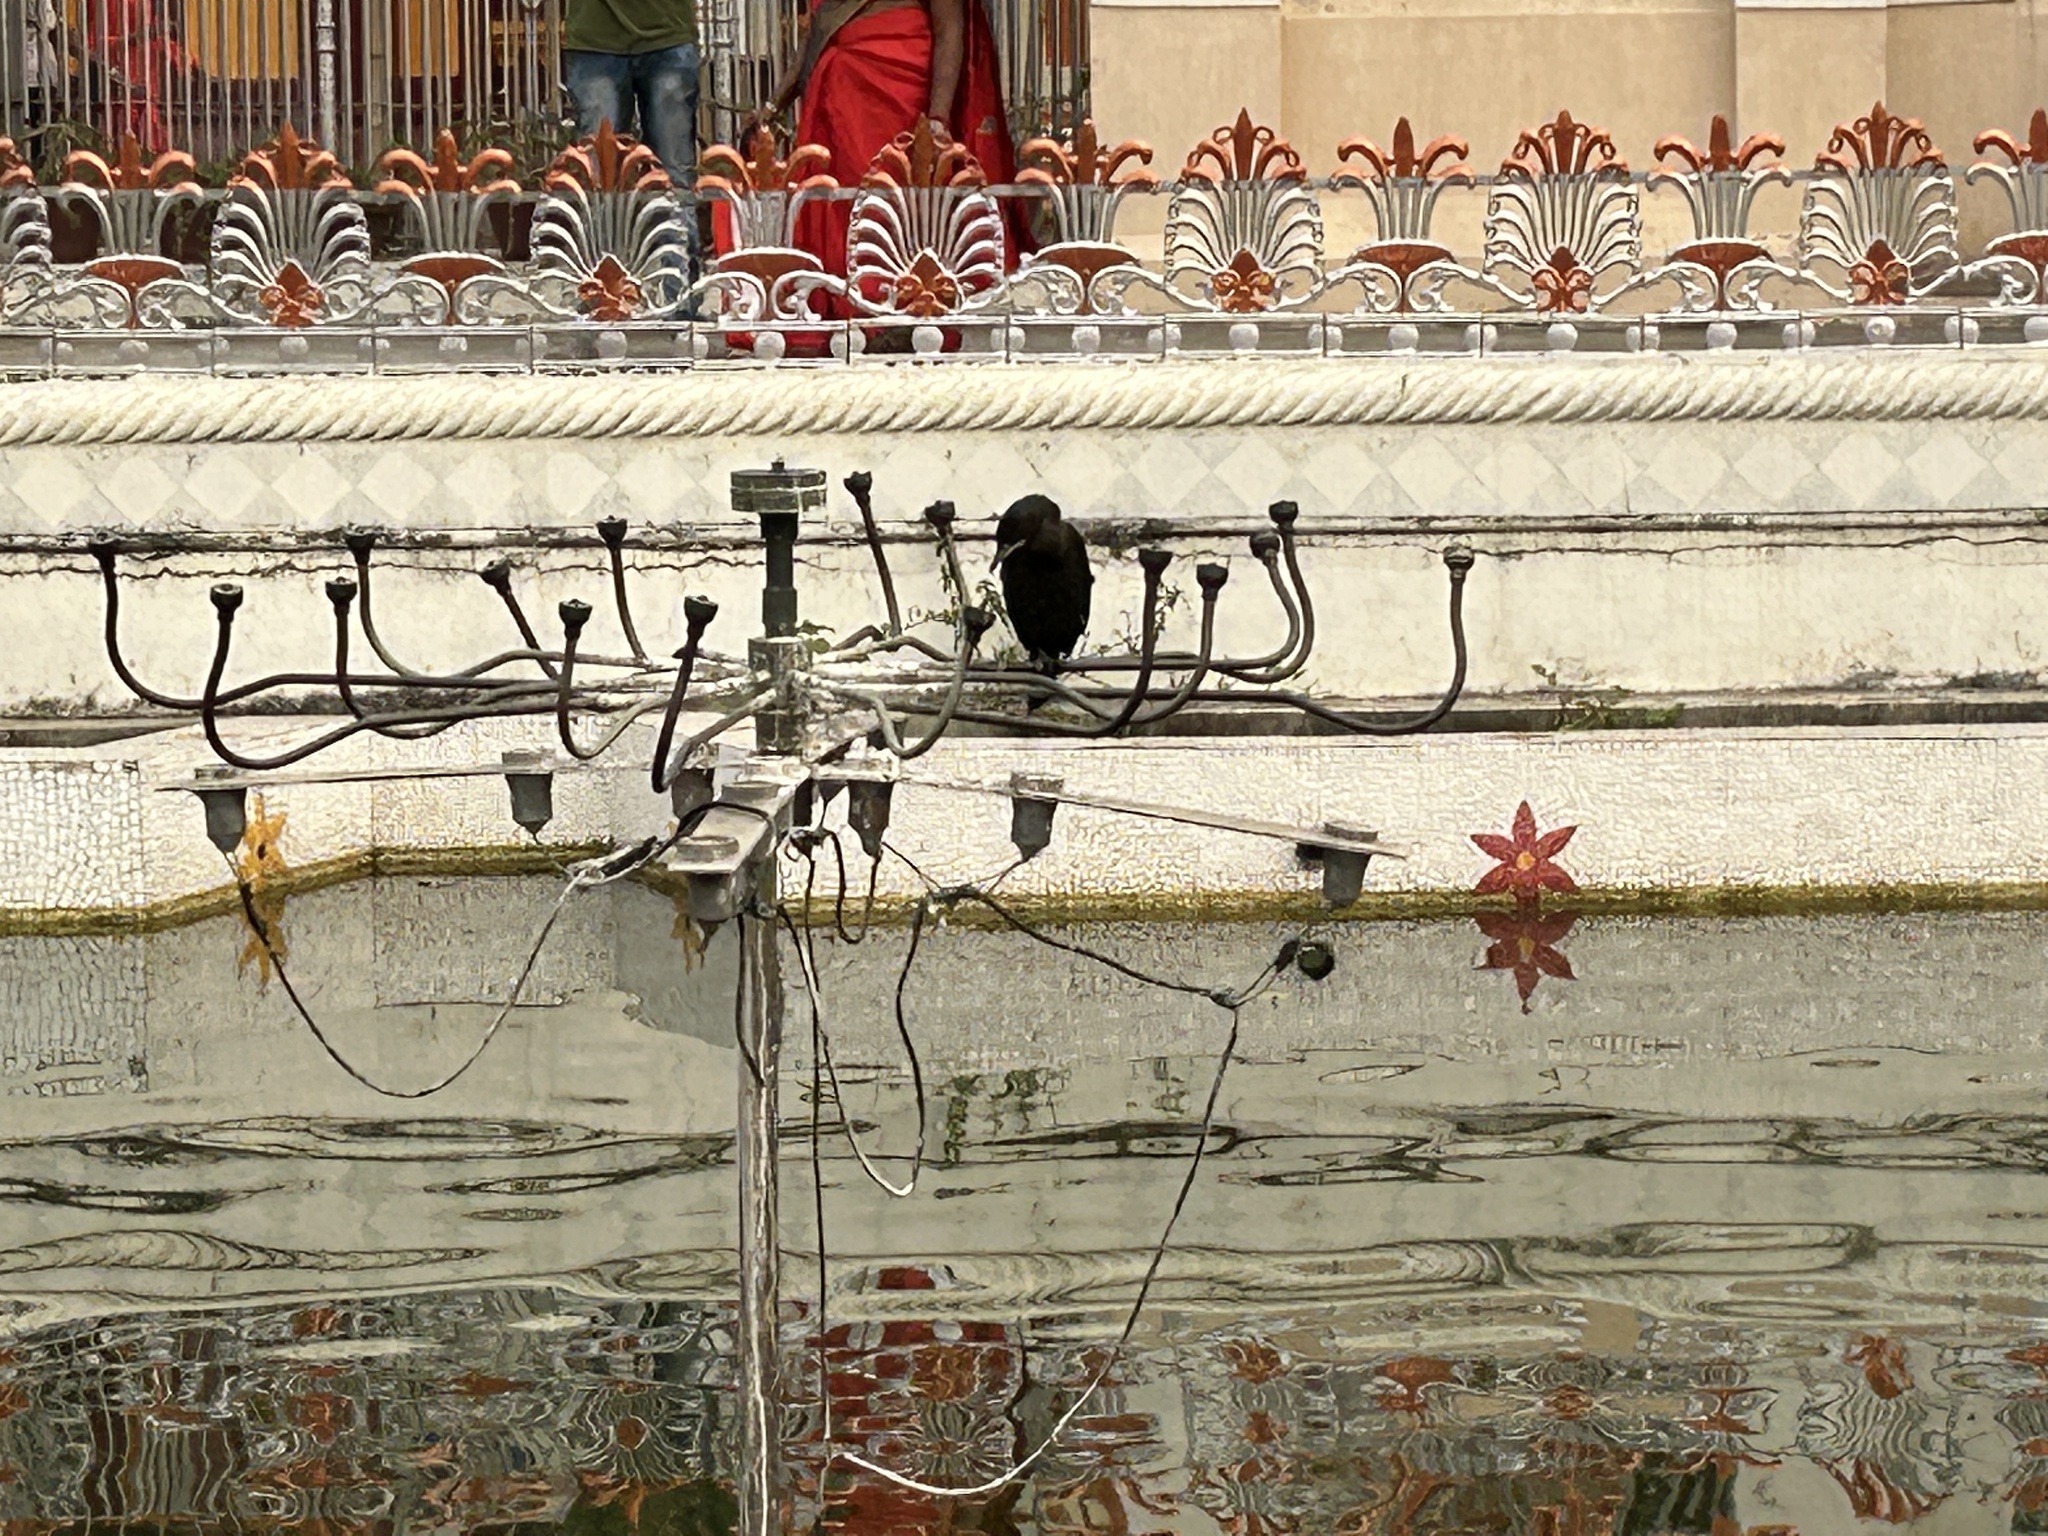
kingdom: Animalia
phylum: Chordata
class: Aves
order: Suliformes
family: Phalacrocoracidae
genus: Microcarbo
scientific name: Microcarbo niger
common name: Little cormorant
